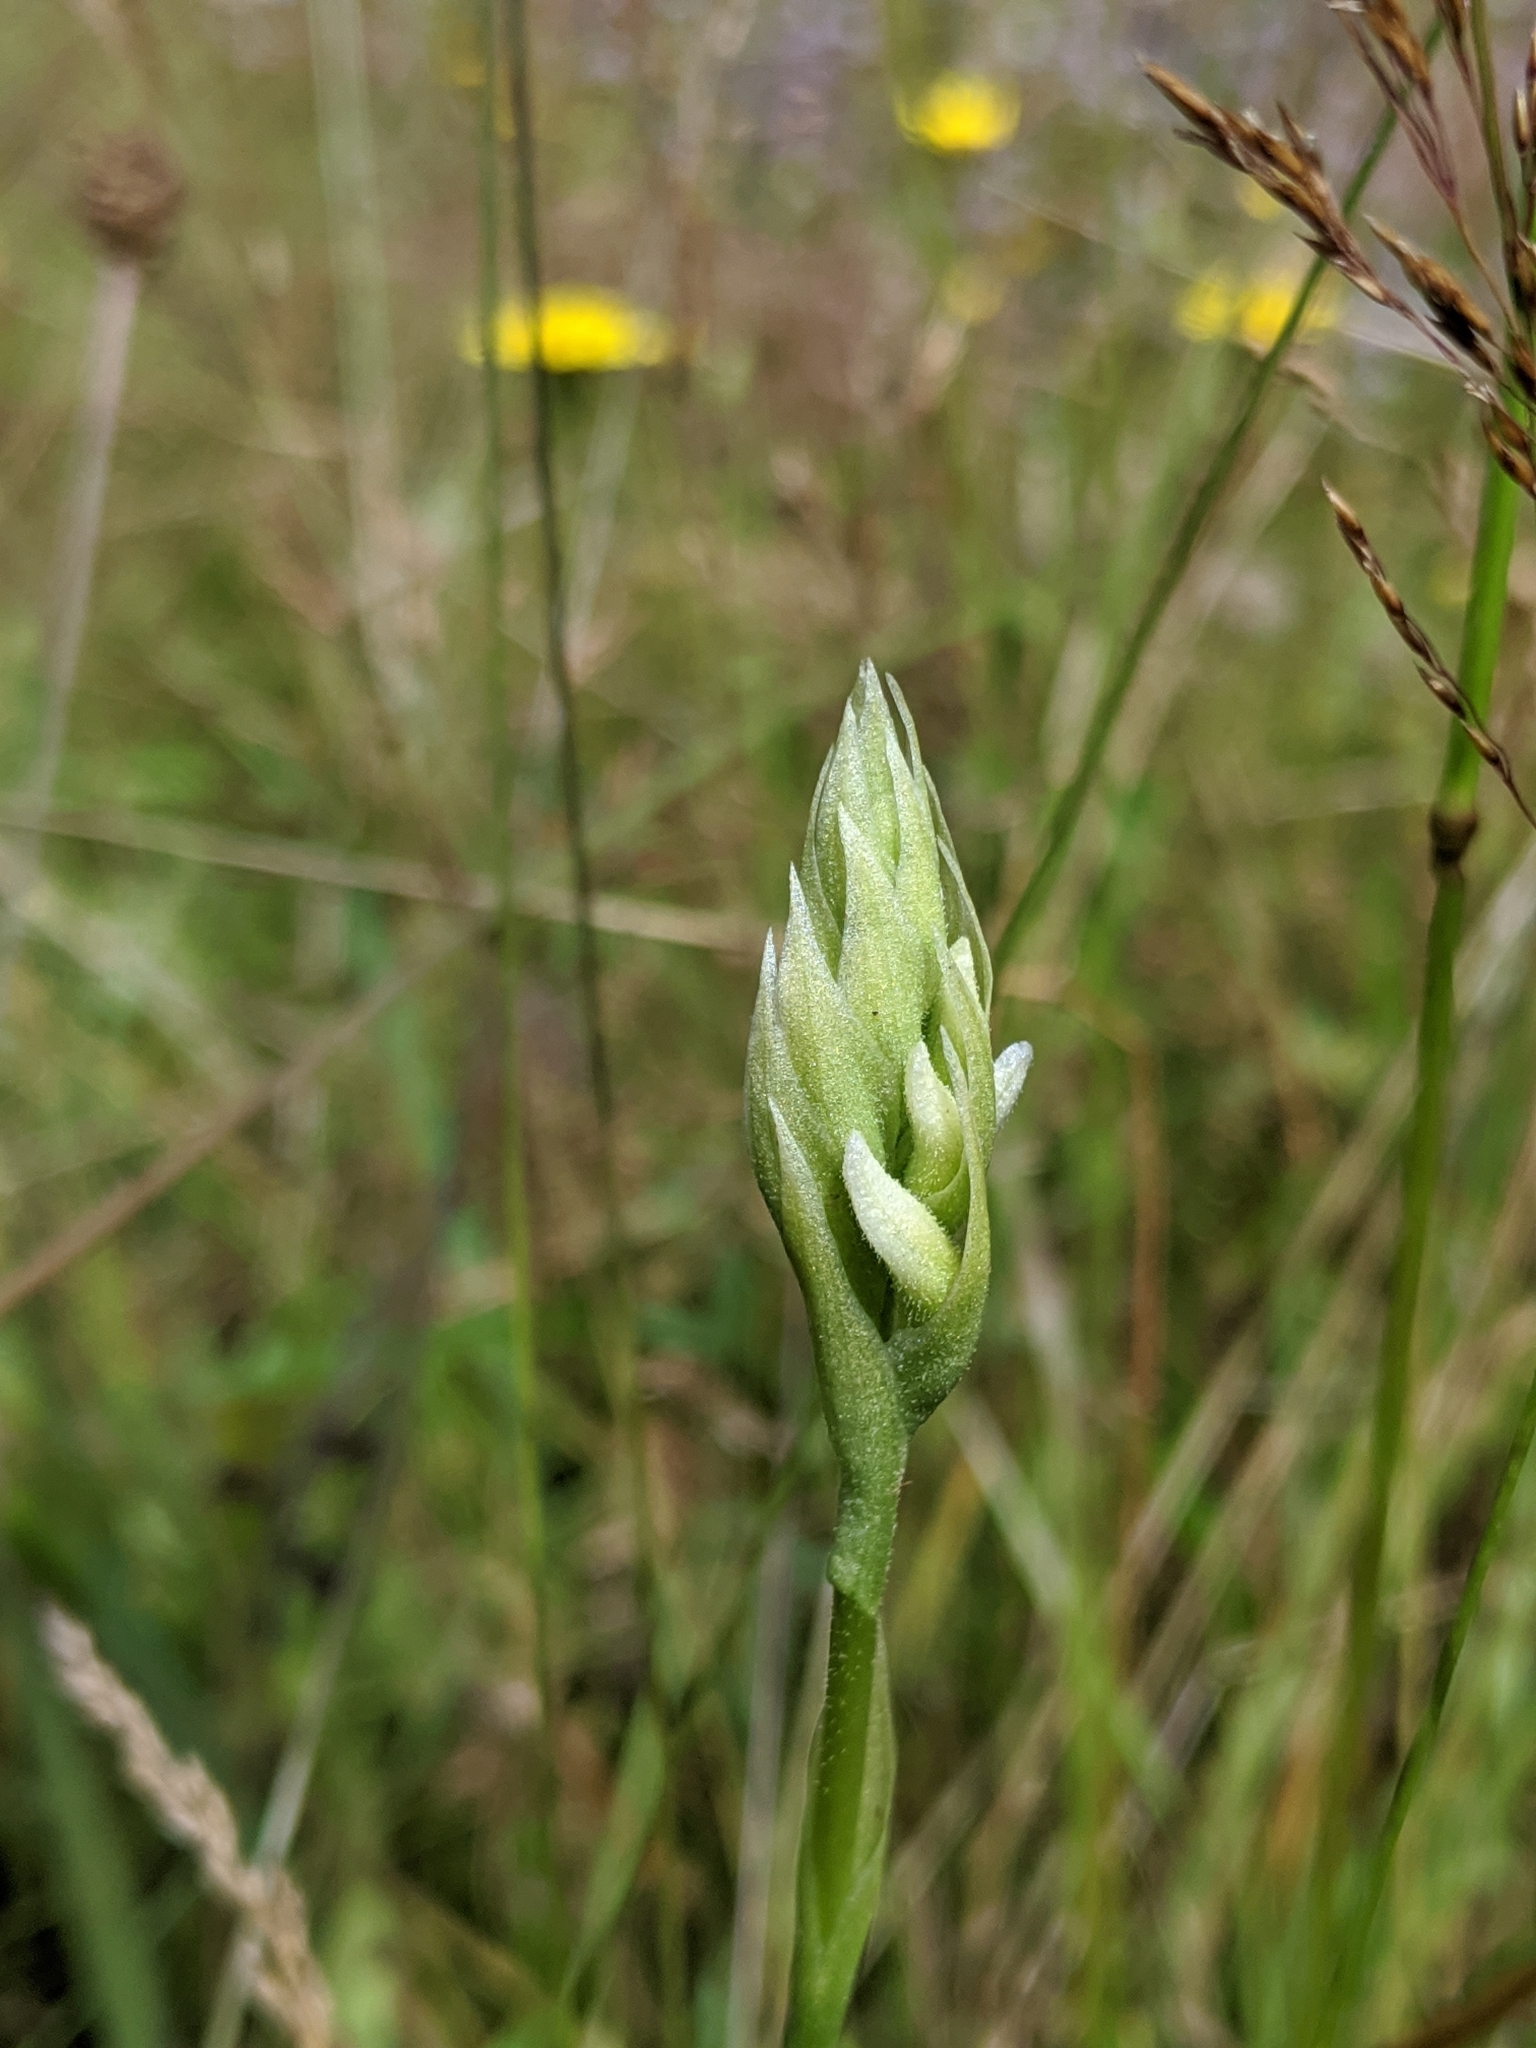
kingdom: Plantae
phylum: Tracheophyta
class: Liliopsida
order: Asparagales
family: Orchidaceae
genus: Spiranthes
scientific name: Spiranthes romanzoffiana
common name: Irish lady's-tresses
